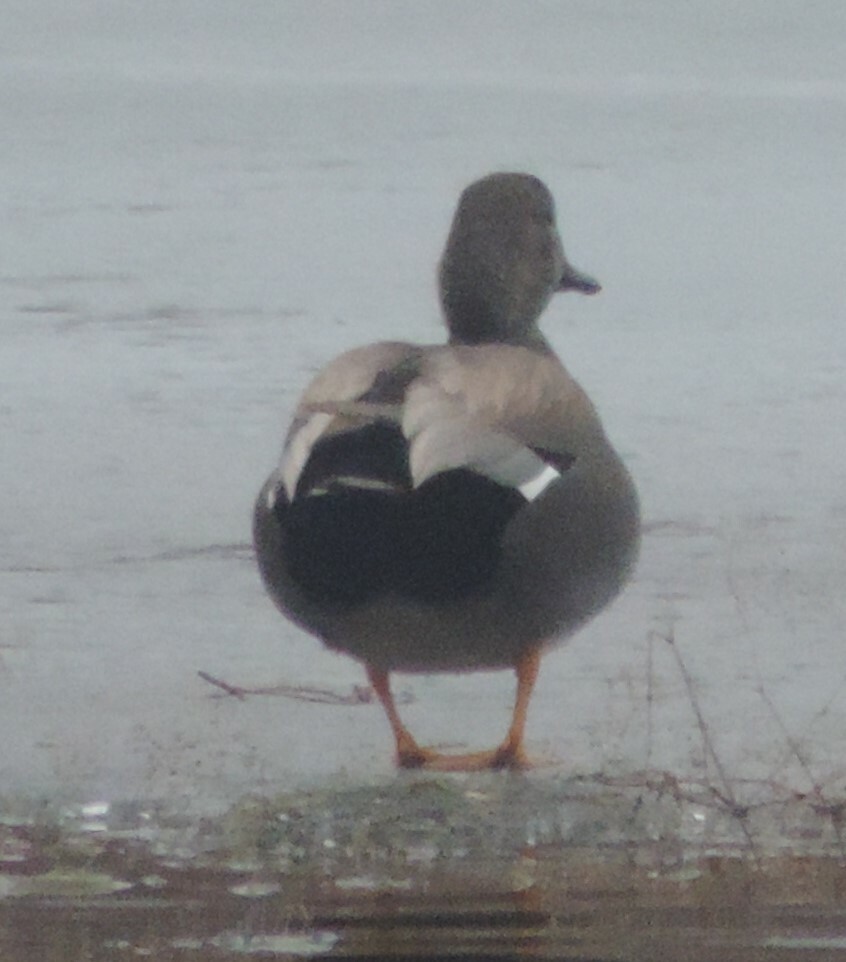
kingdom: Animalia
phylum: Chordata
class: Aves
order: Anseriformes
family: Anatidae
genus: Mareca
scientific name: Mareca strepera
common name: Gadwall
